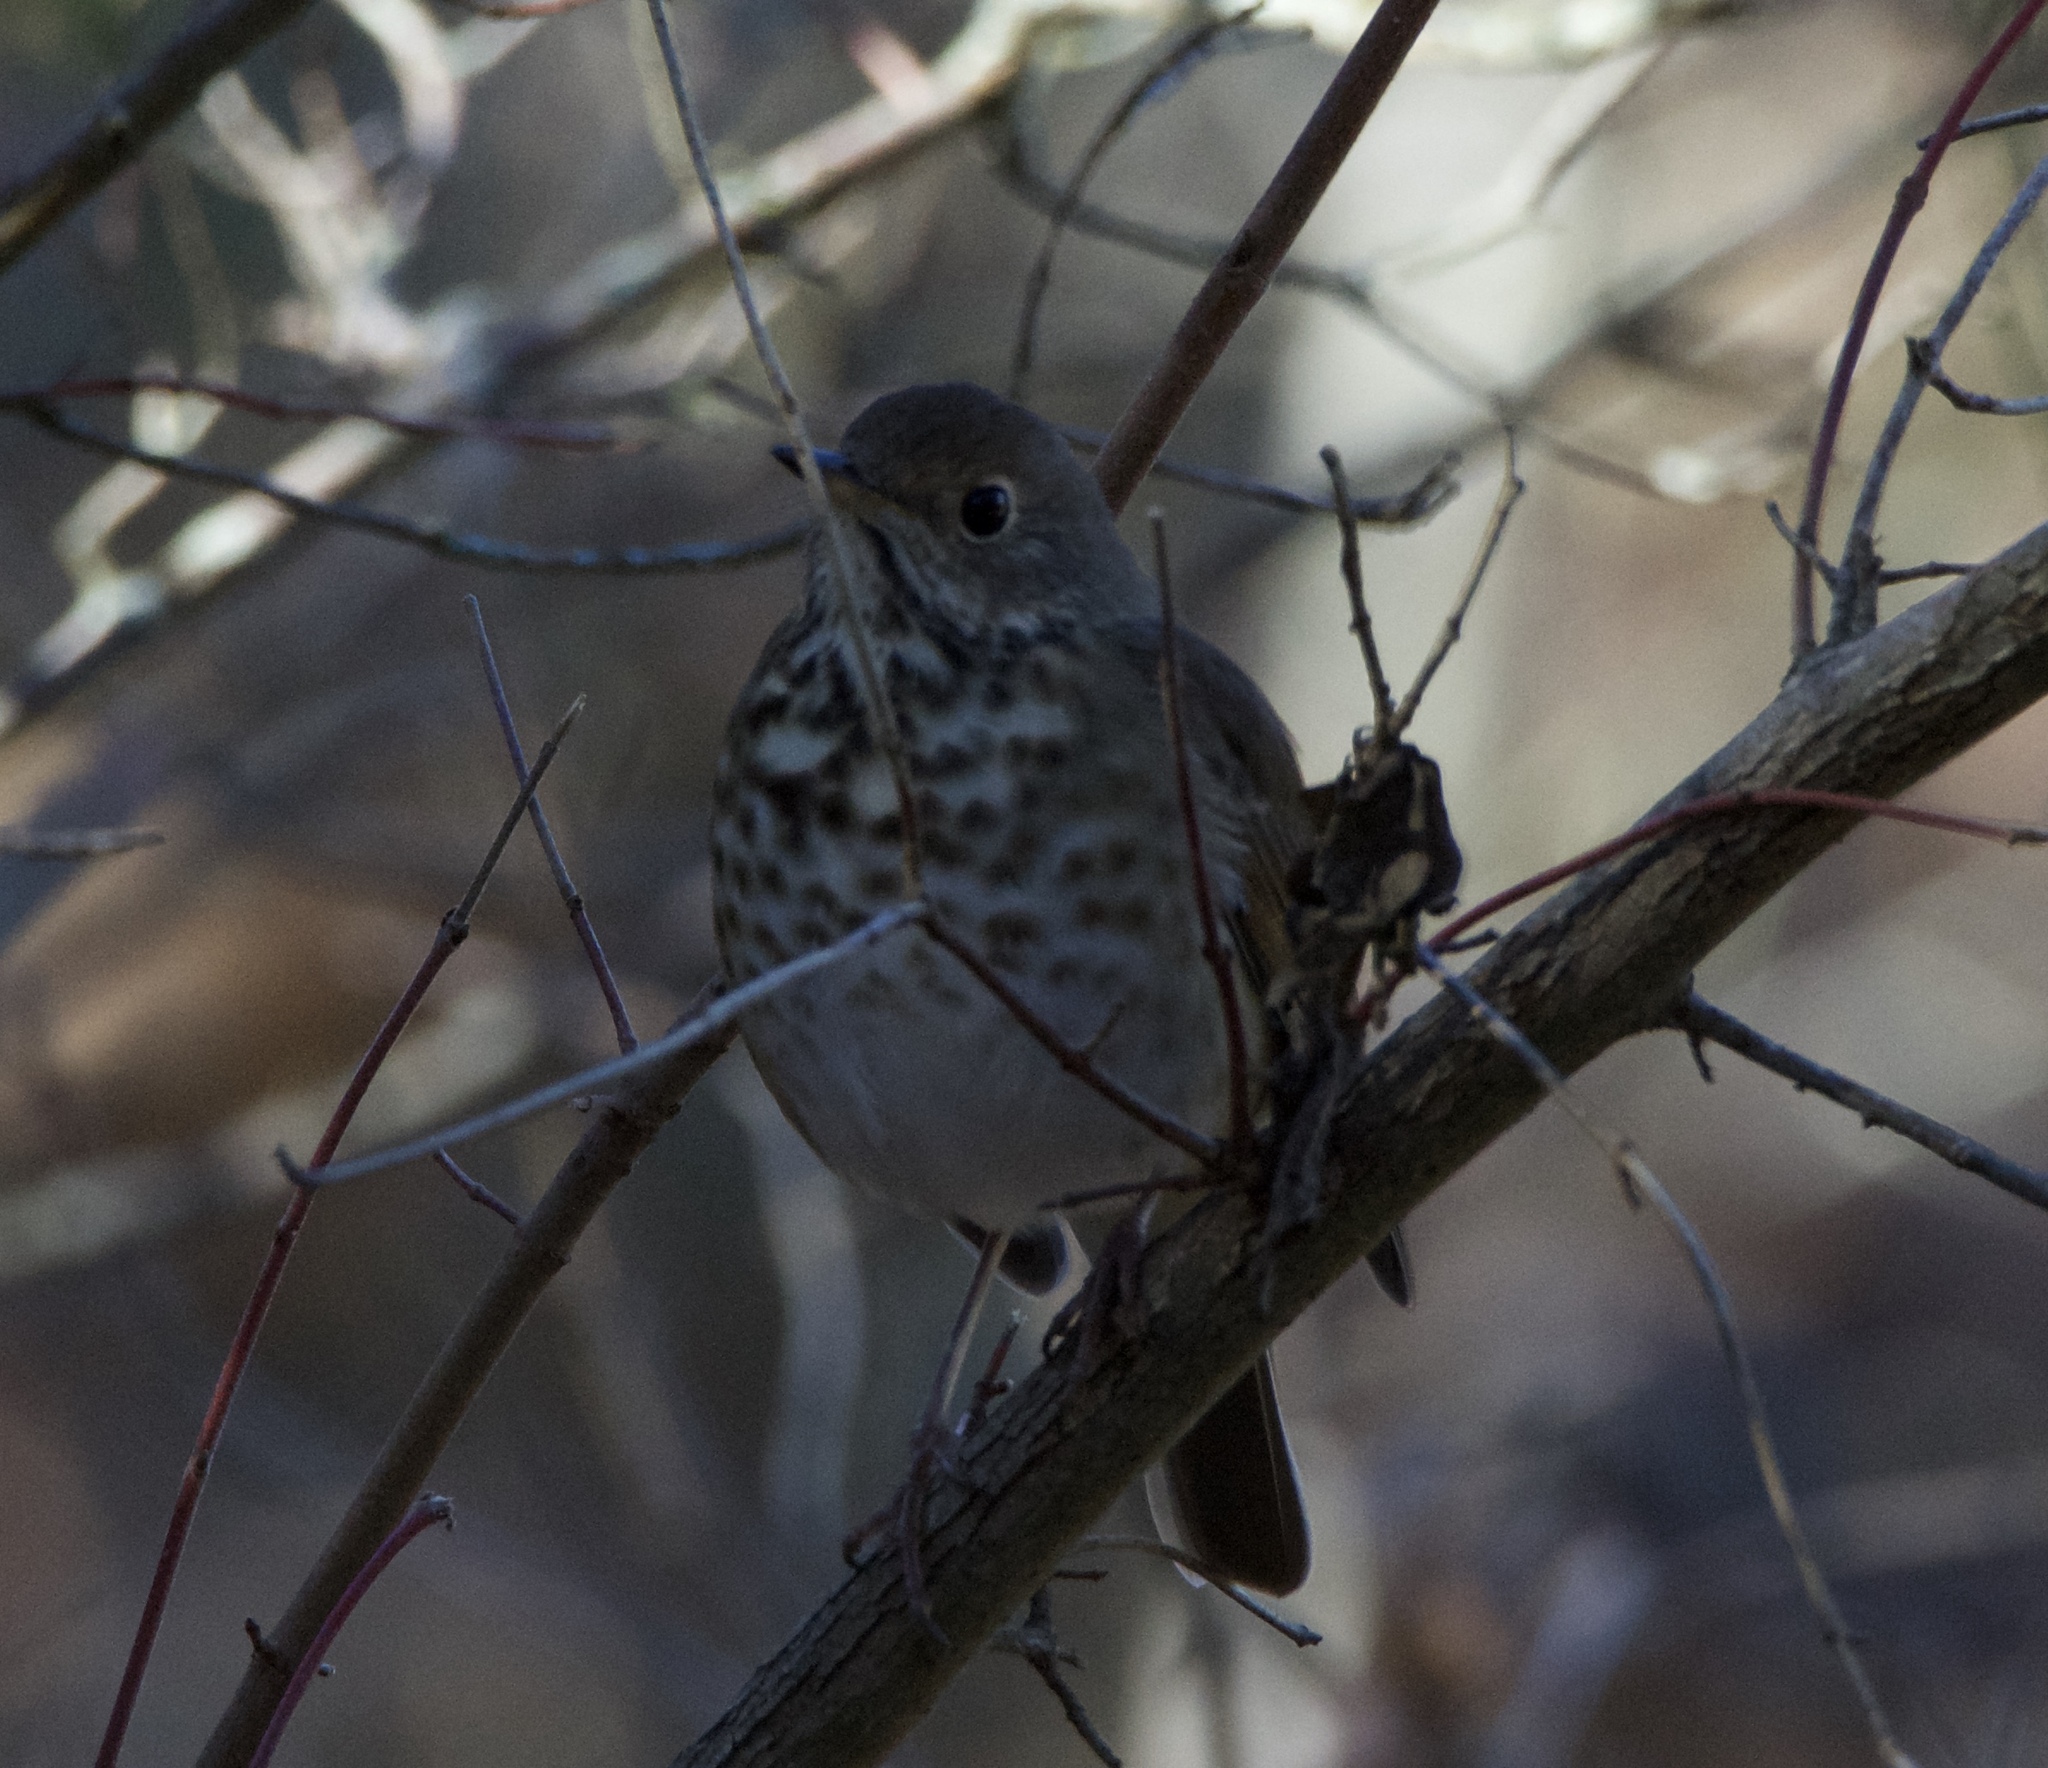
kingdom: Animalia
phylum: Chordata
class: Aves
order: Passeriformes
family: Turdidae
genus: Catharus
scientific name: Catharus guttatus
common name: Hermit thrush
